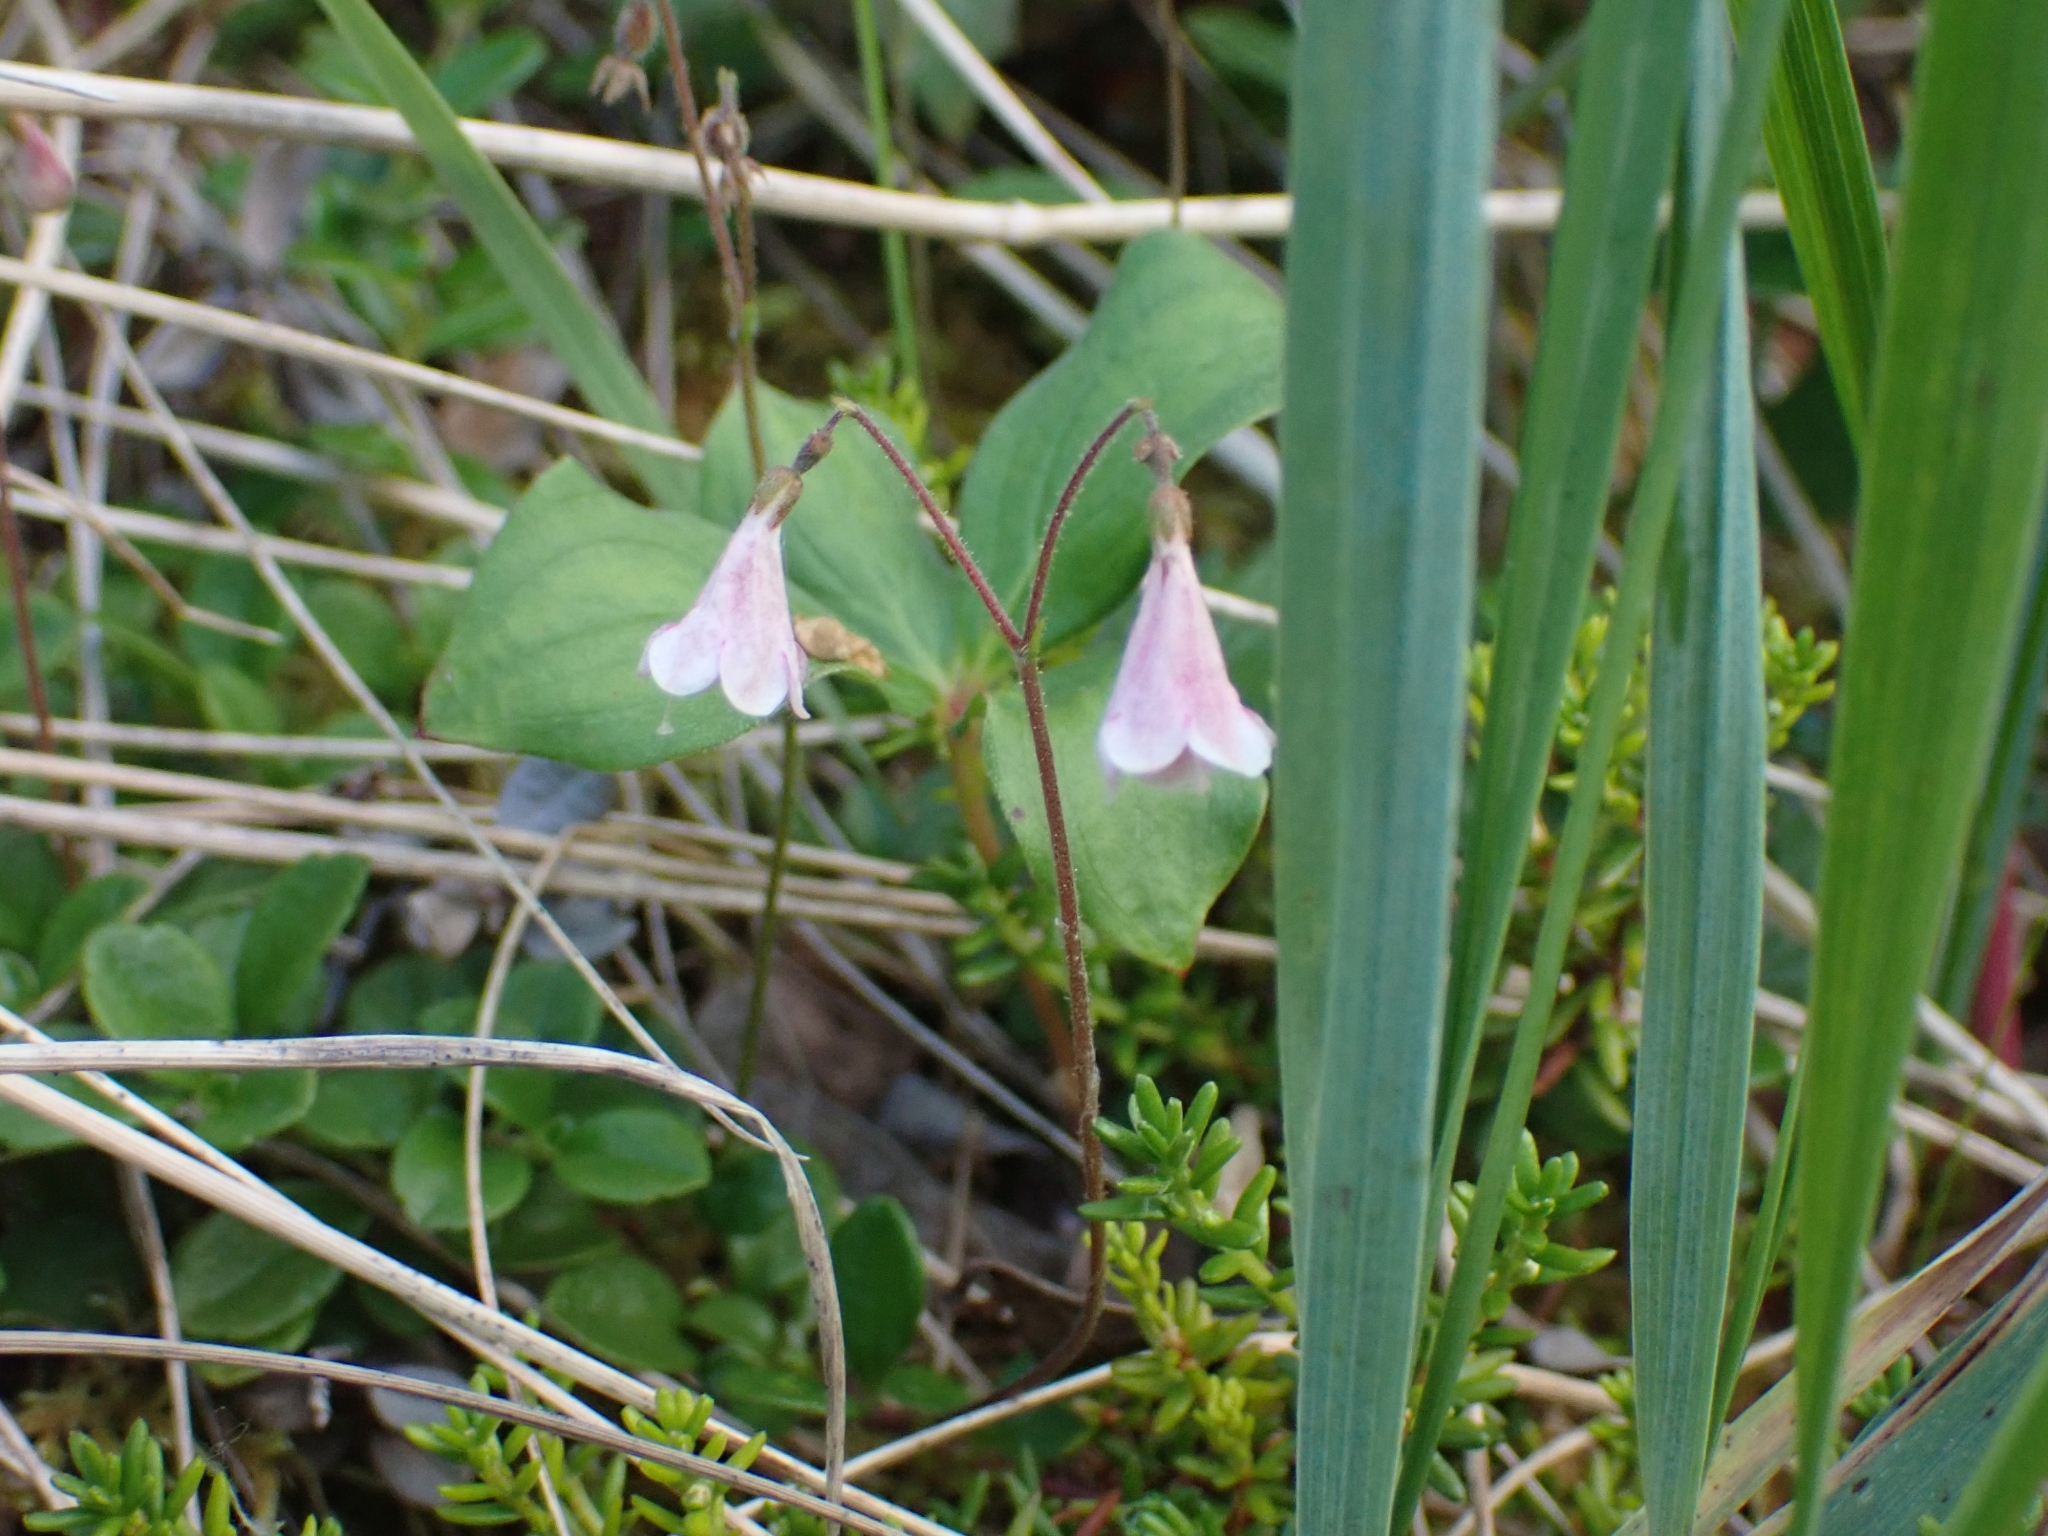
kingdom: Plantae
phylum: Tracheophyta
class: Magnoliopsida
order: Dipsacales
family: Caprifoliaceae
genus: Linnaea
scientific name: Linnaea borealis
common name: Twinflower
